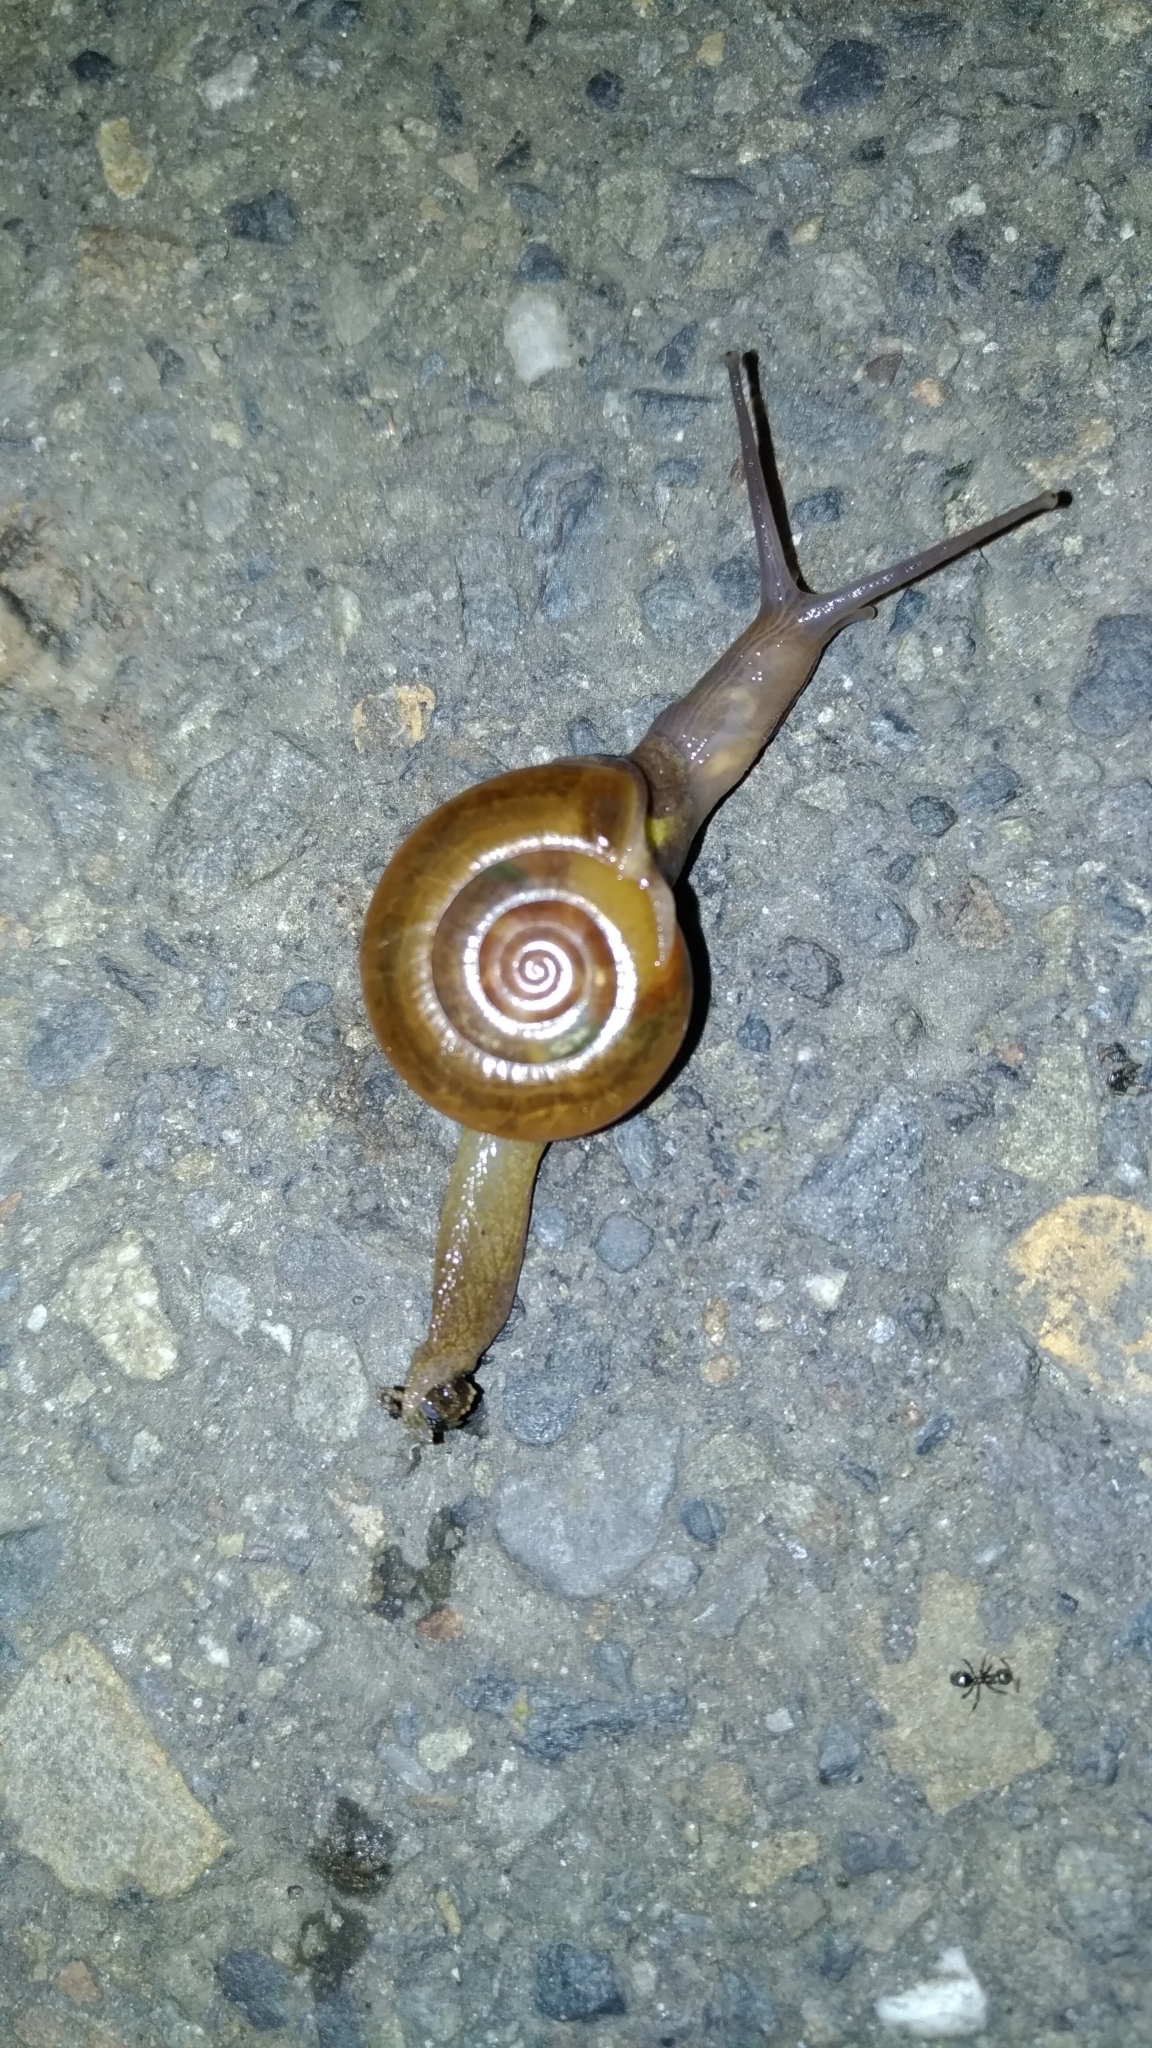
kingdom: Animalia
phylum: Mollusca
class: Gastropoda
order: Stylommatophora
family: Ariophantidae
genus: Macrochlamys
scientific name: Macrochlamys hippocastaneum
